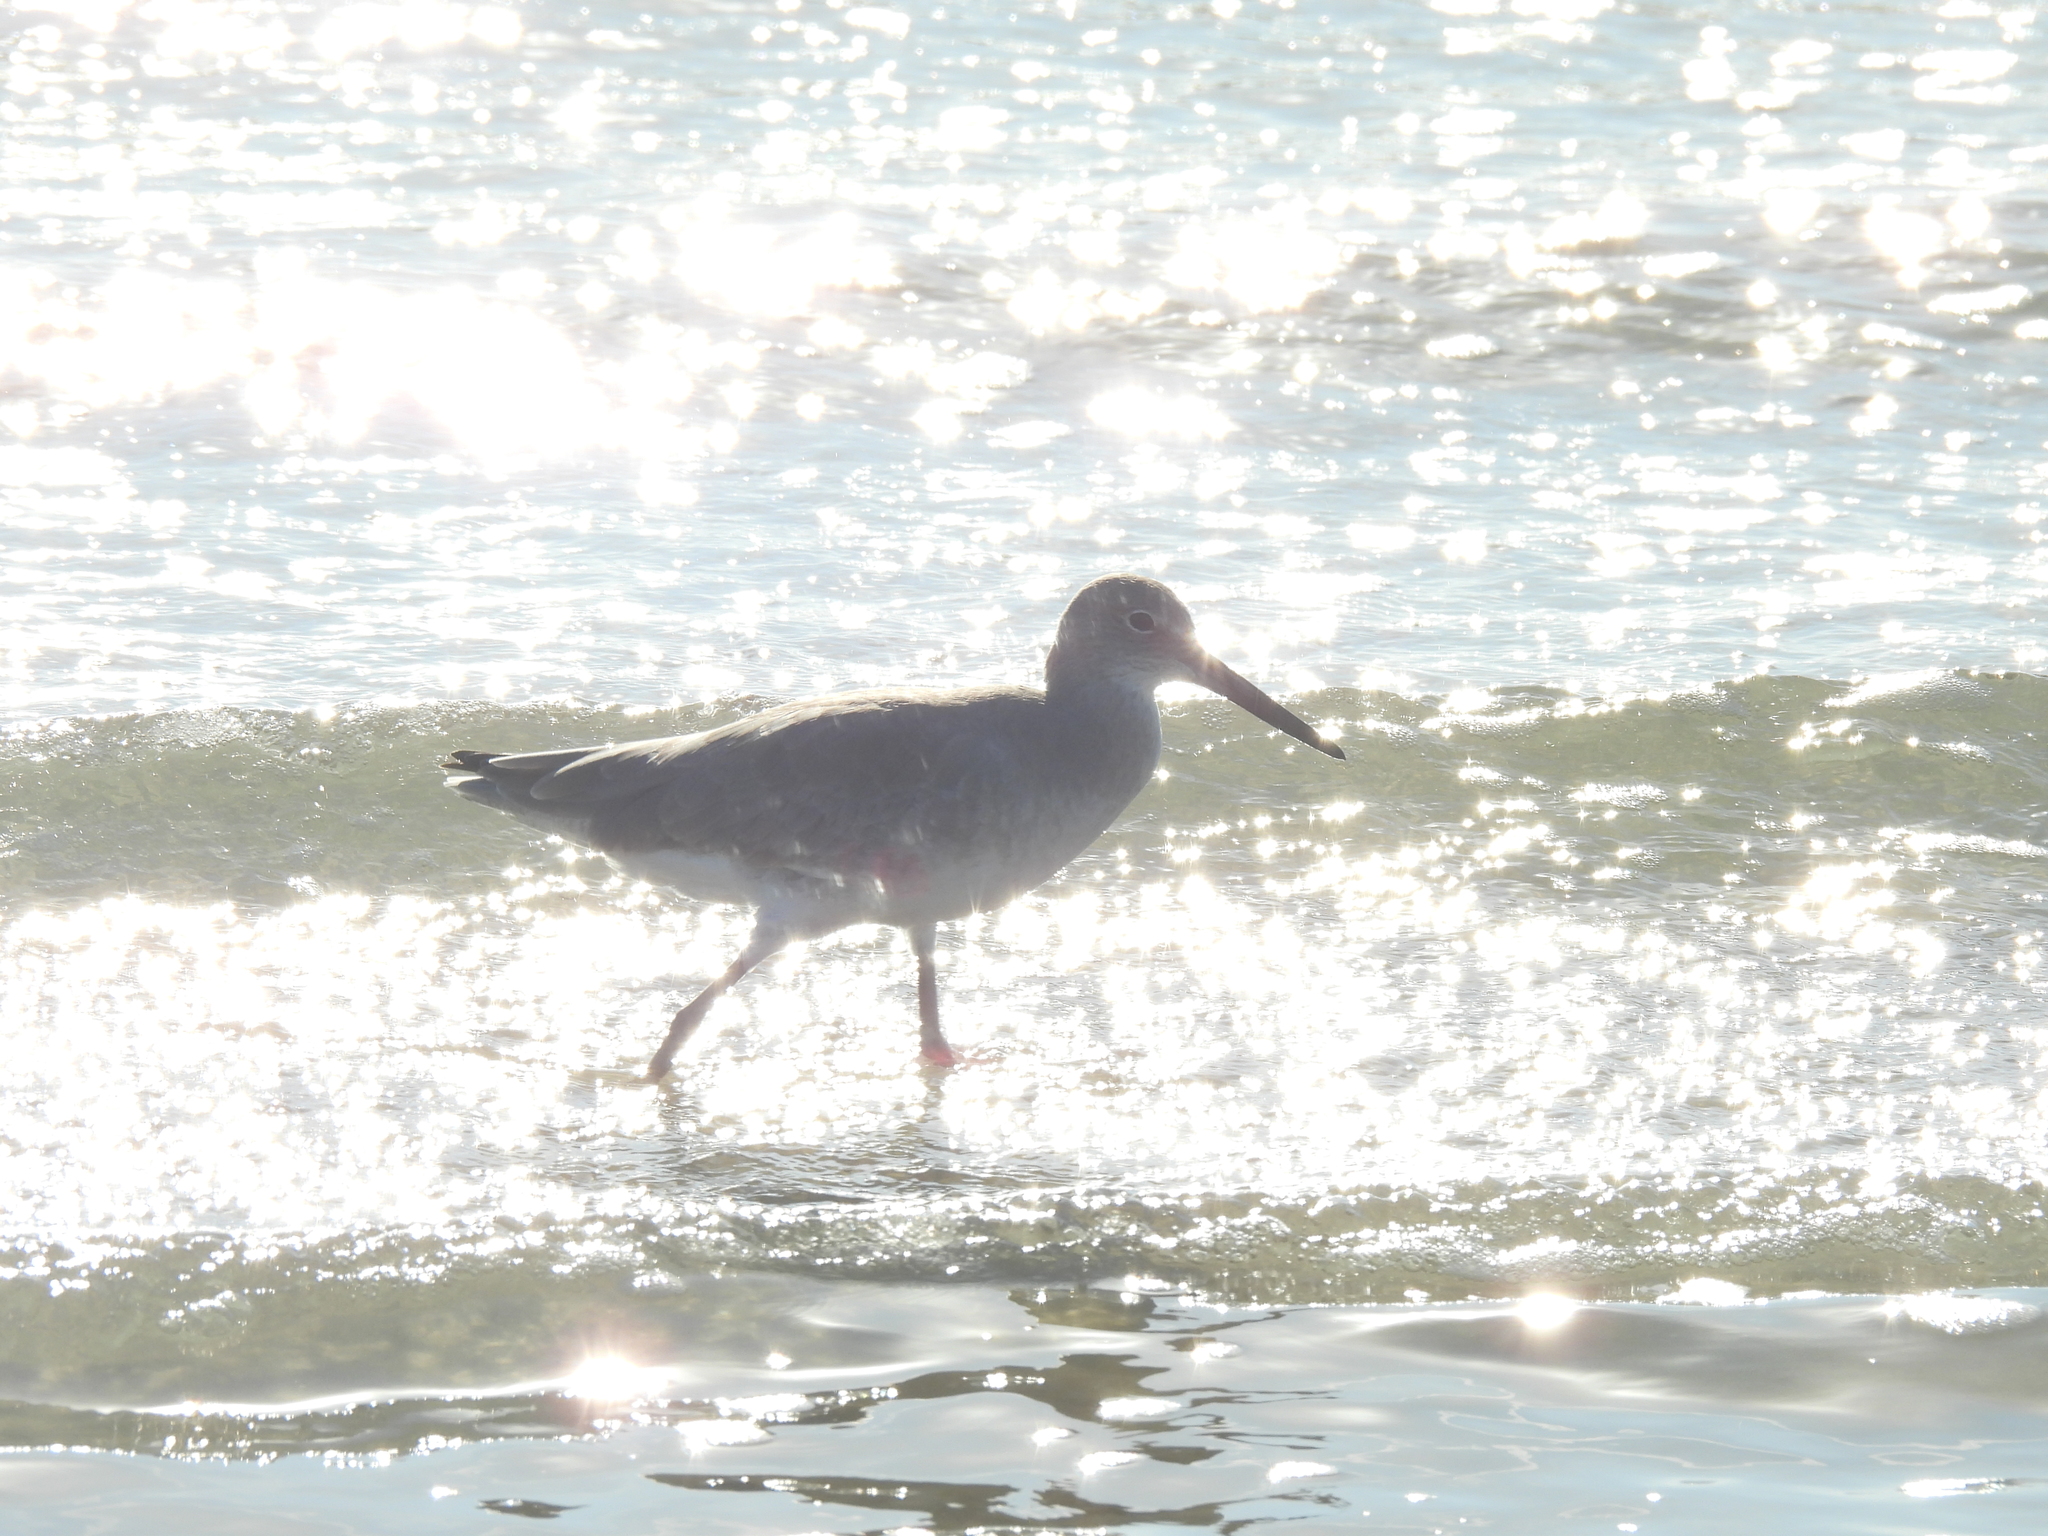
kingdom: Animalia
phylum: Chordata
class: Aves
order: Charadriiformes
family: Scolopacidae
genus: Tringa
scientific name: Tringa semipalmata
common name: Willet
